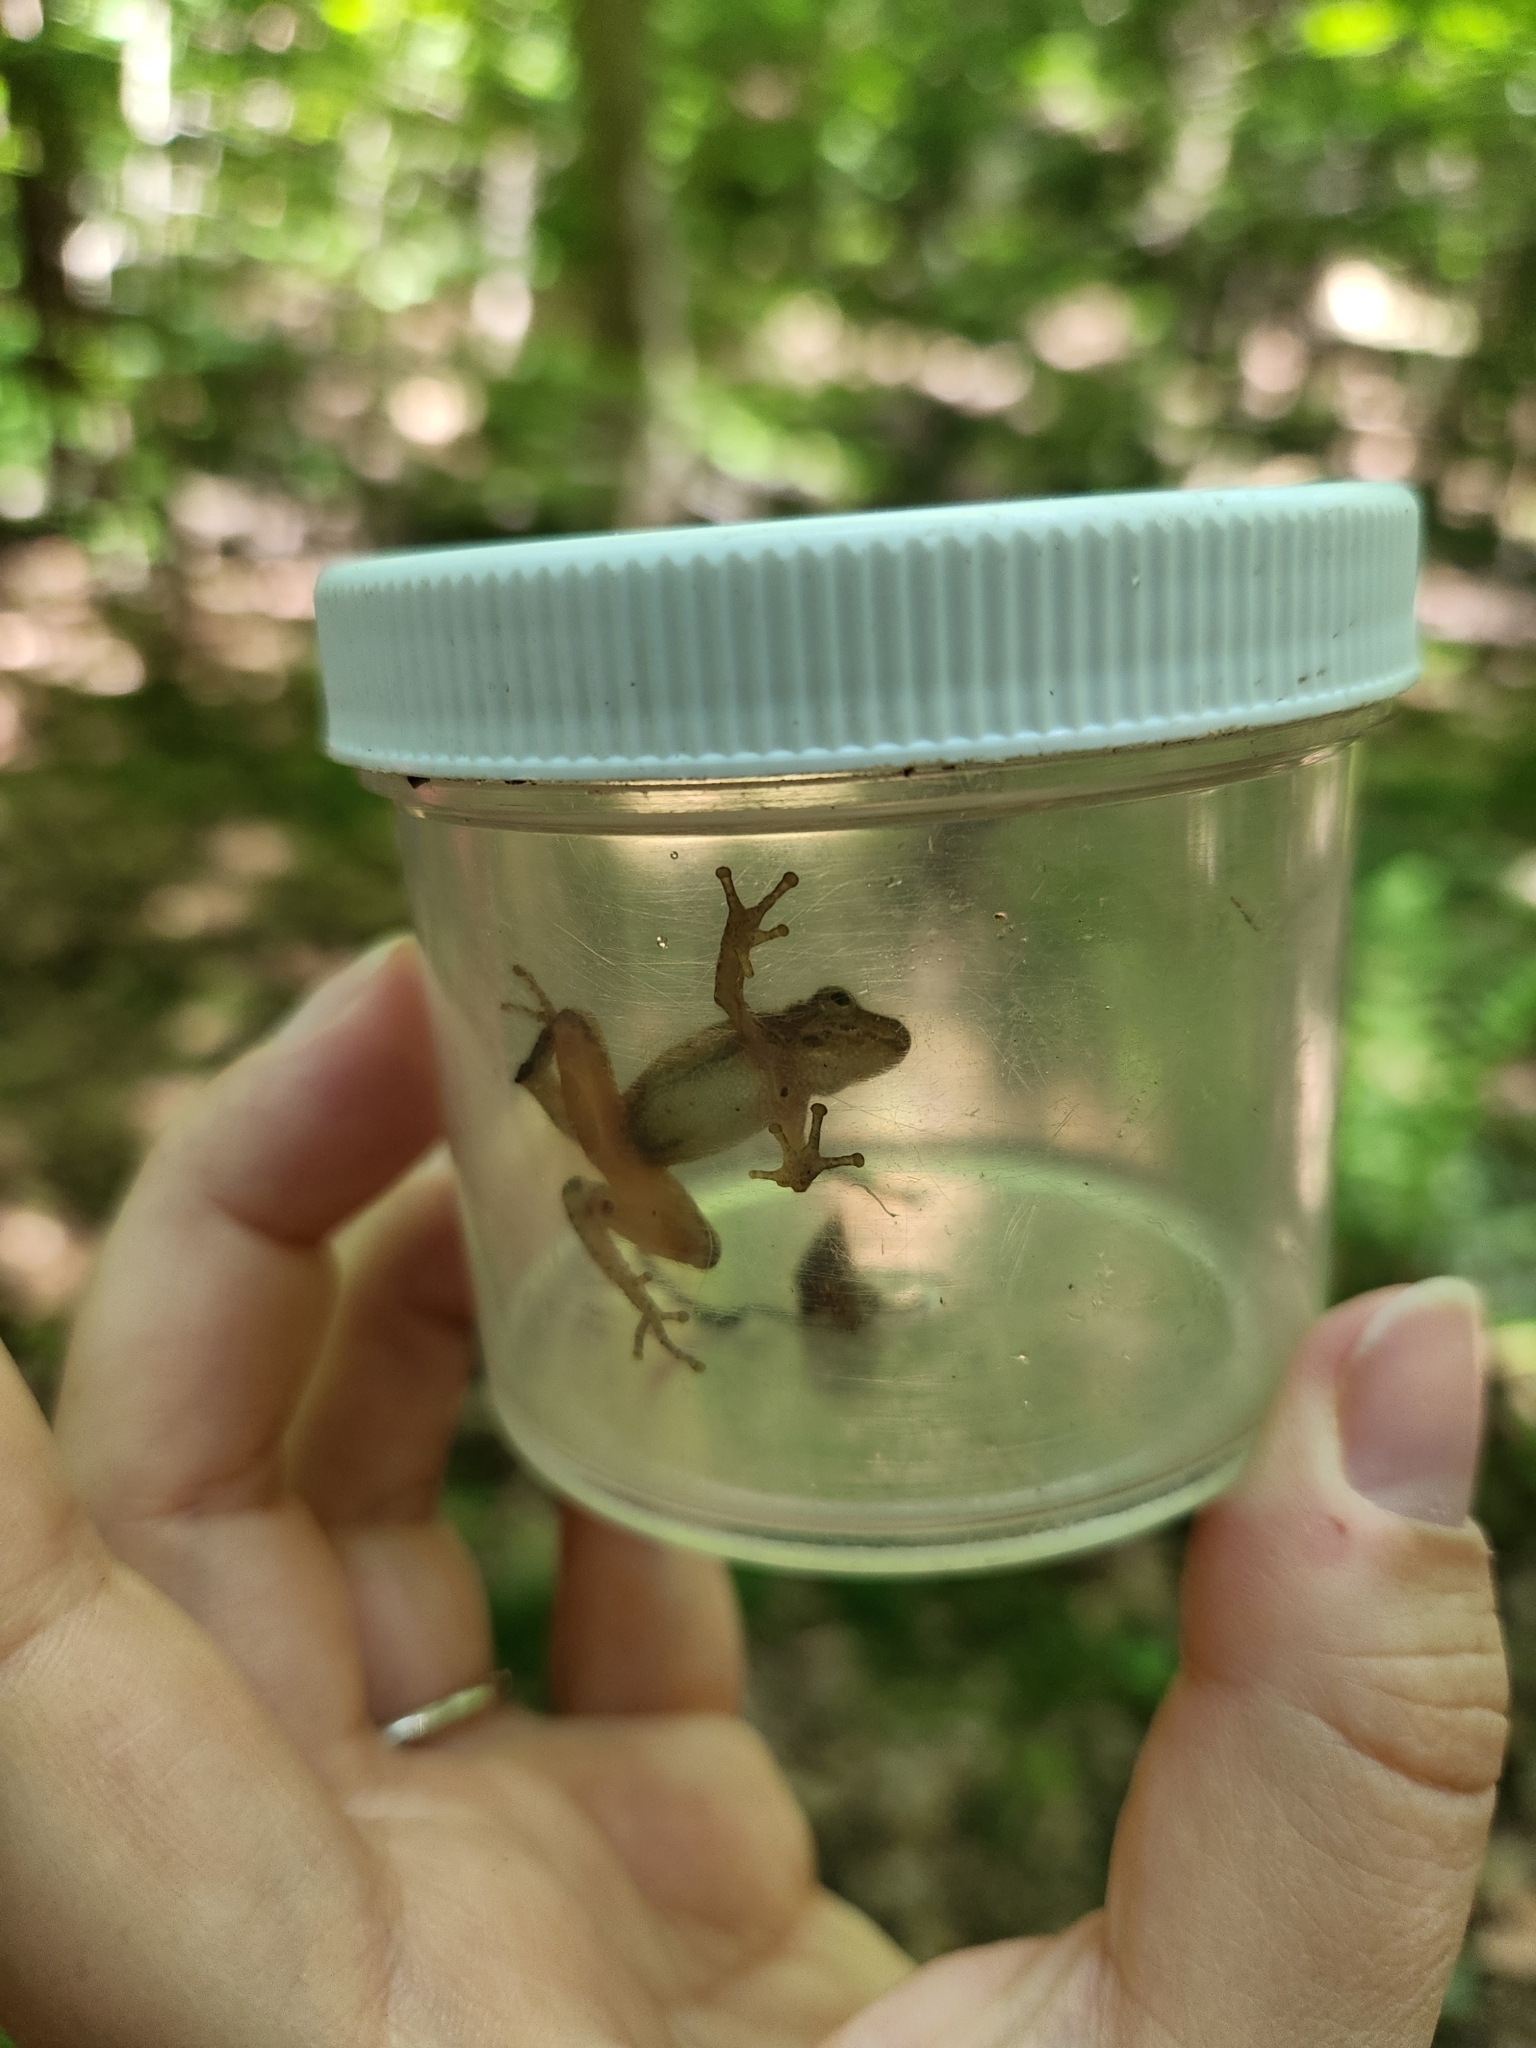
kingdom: Animalia
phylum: Chordata
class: Amphibia
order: Anura
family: Hylidae
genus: Pseudacris
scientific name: Pseudacris crucifer
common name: Spring peeper
